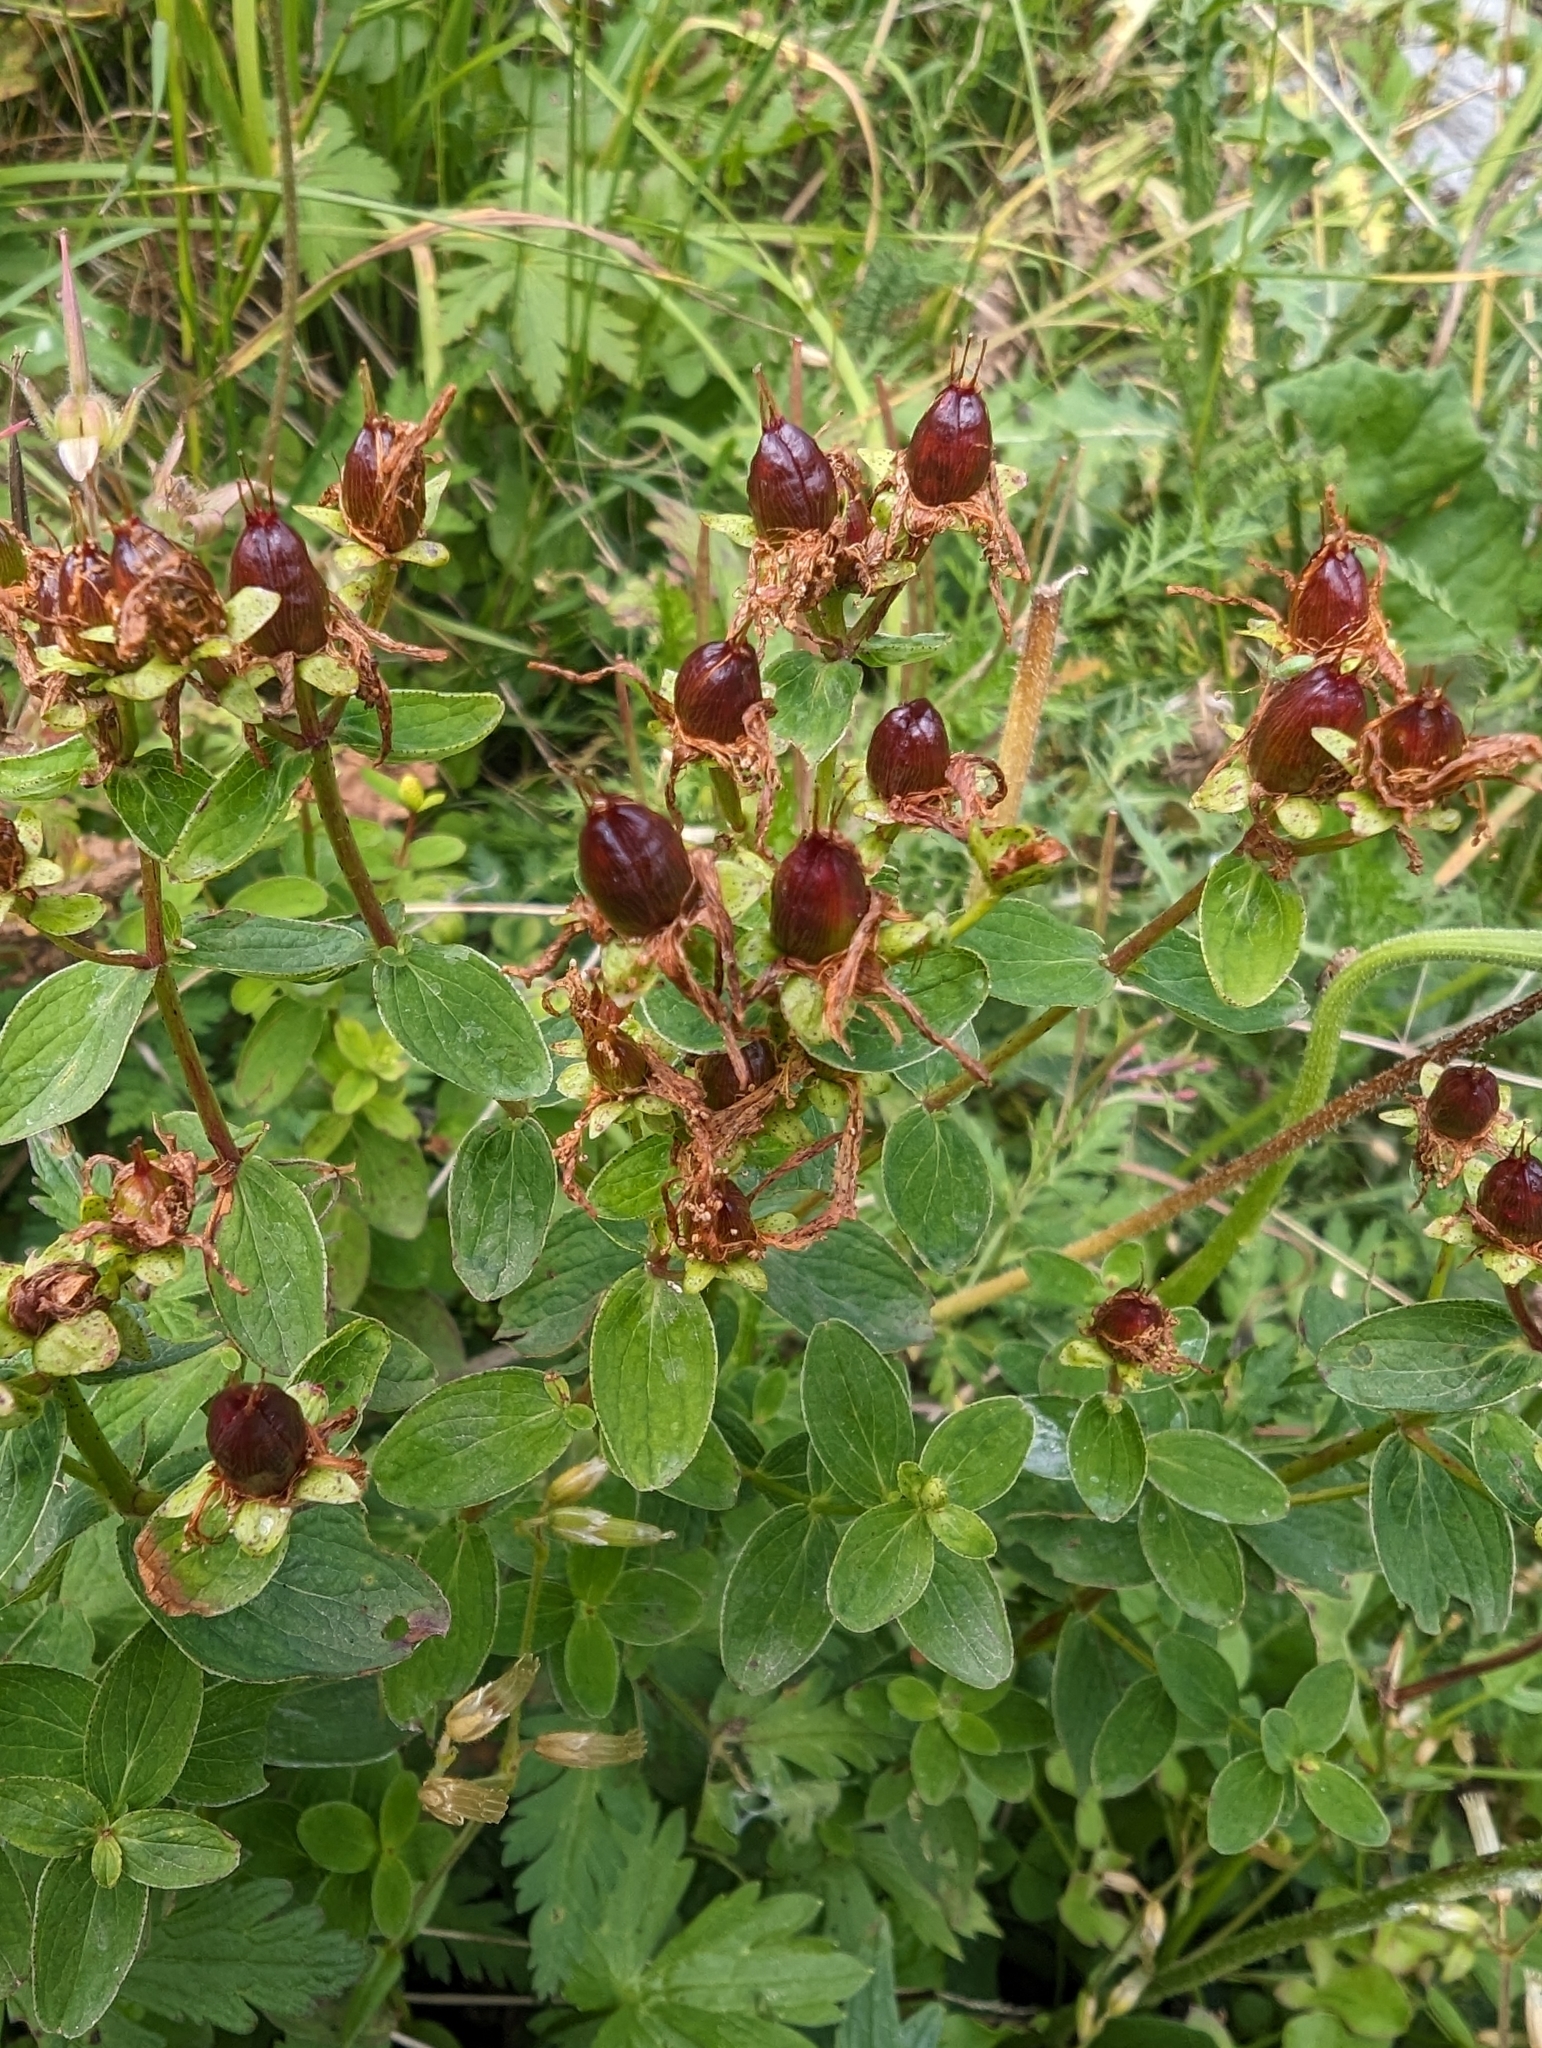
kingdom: Plantae
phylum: Tracheophyta
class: Magnoliopsida
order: Malpighiales
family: Hypericaceae
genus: Hypericum
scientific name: Hypericum maculatum
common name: Imperforate st. john's-wort
